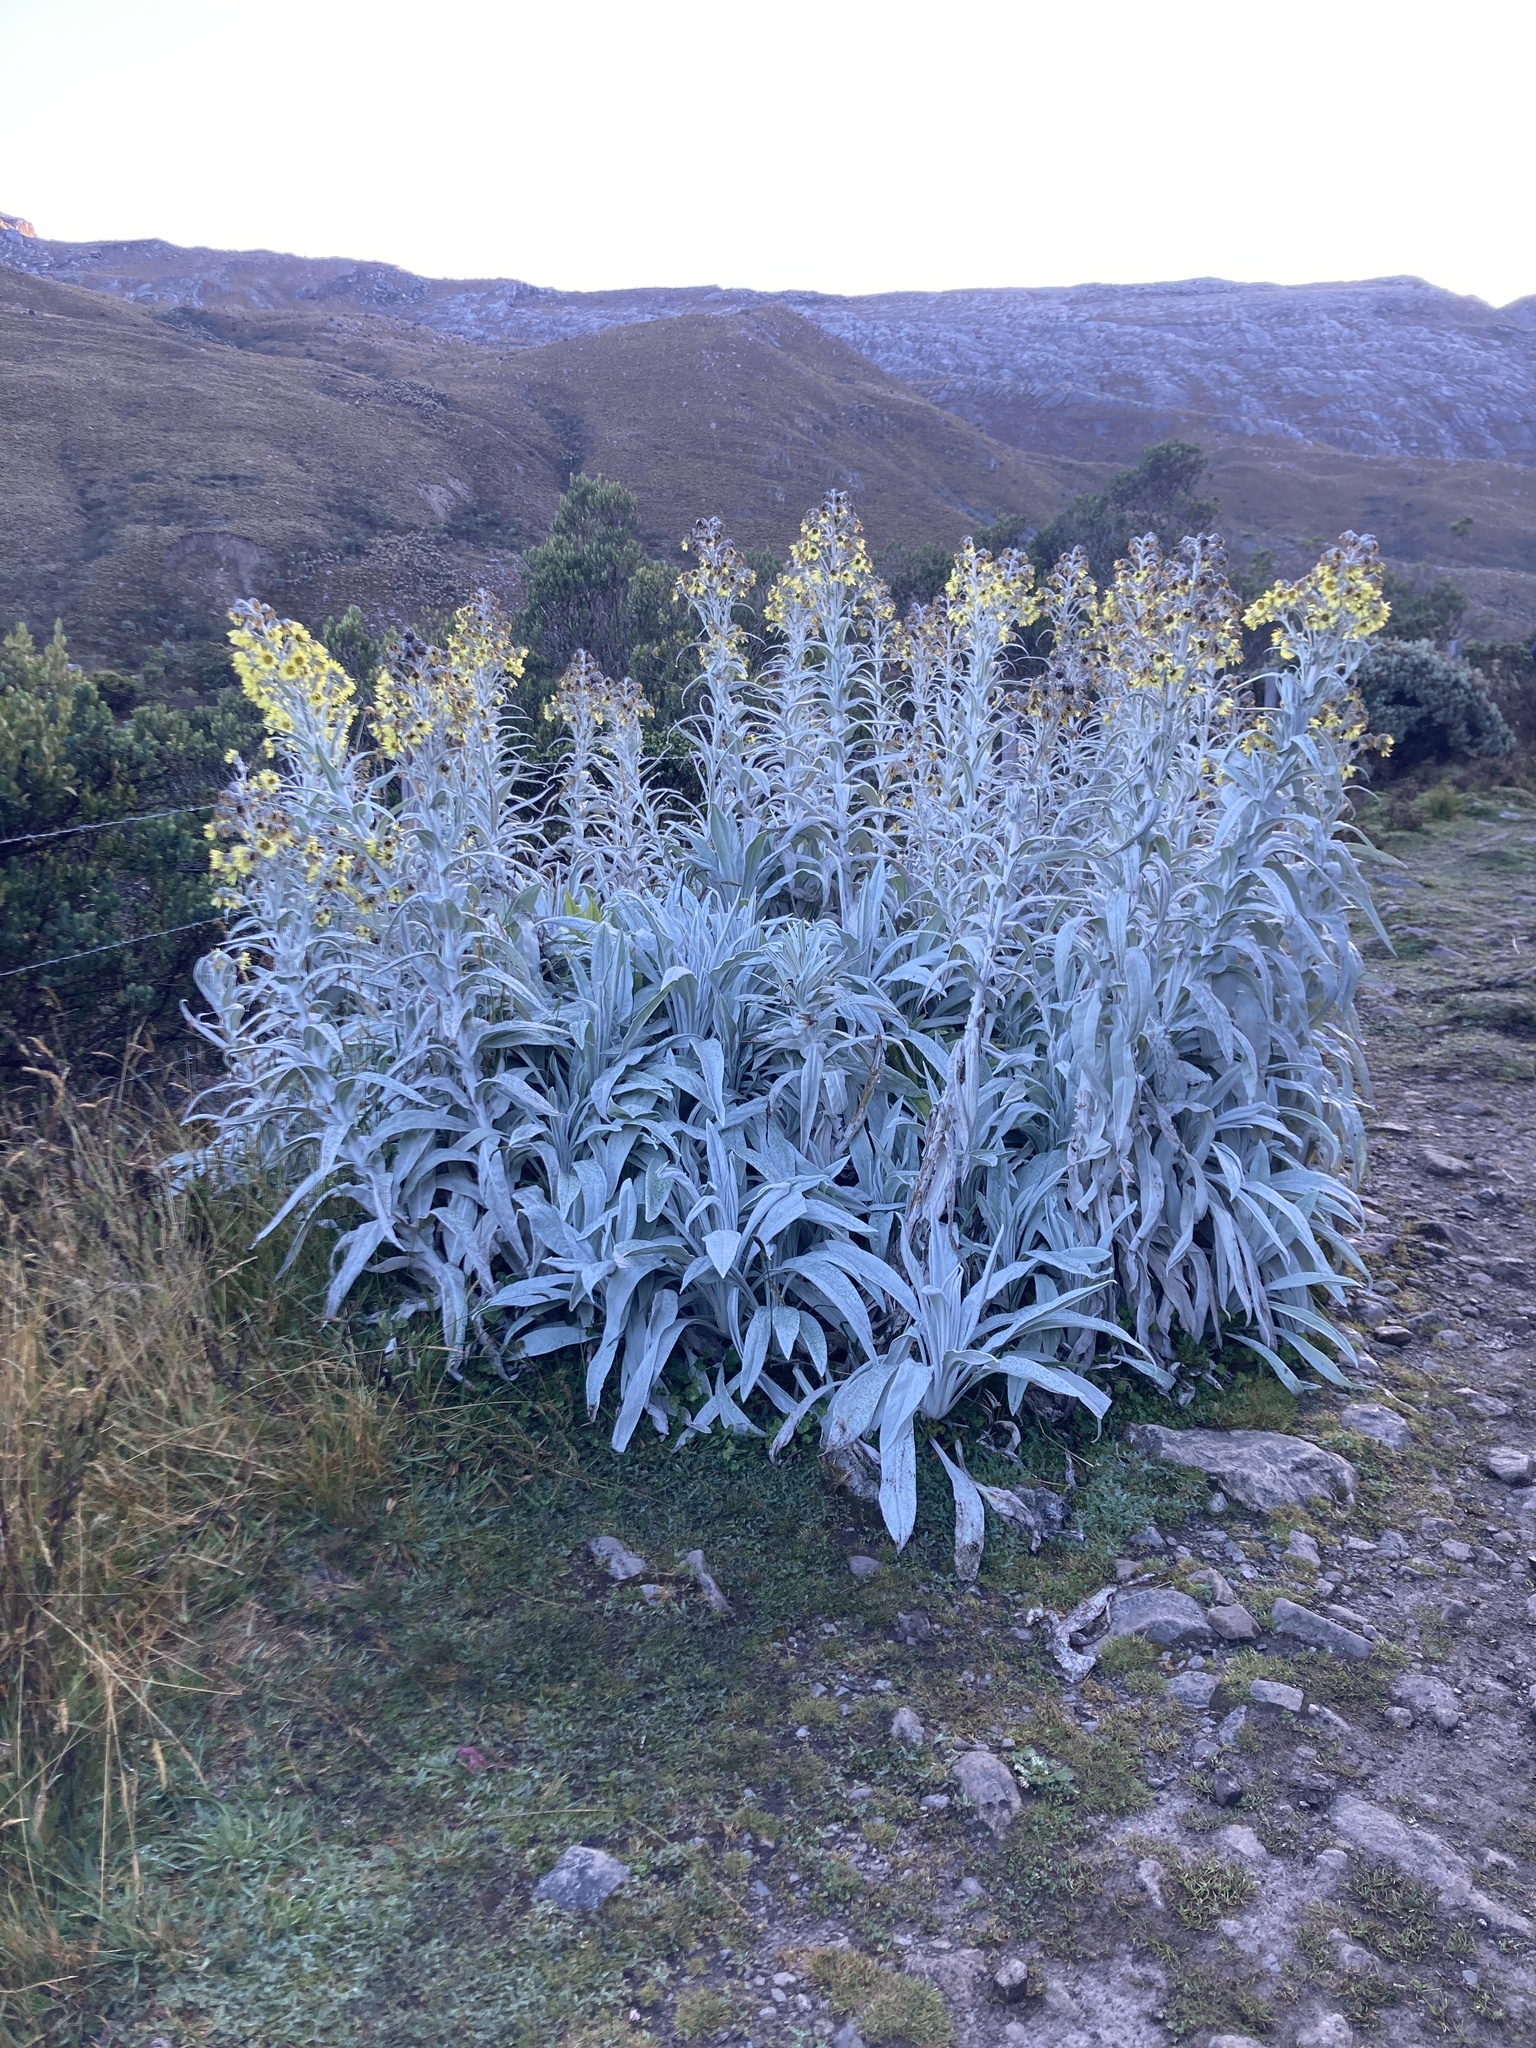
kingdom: Plantae
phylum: Tracheophyta
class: Magnoliopsida
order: Asterales
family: Asteraceae
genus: Senecio
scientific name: Senecio niveoaureus
